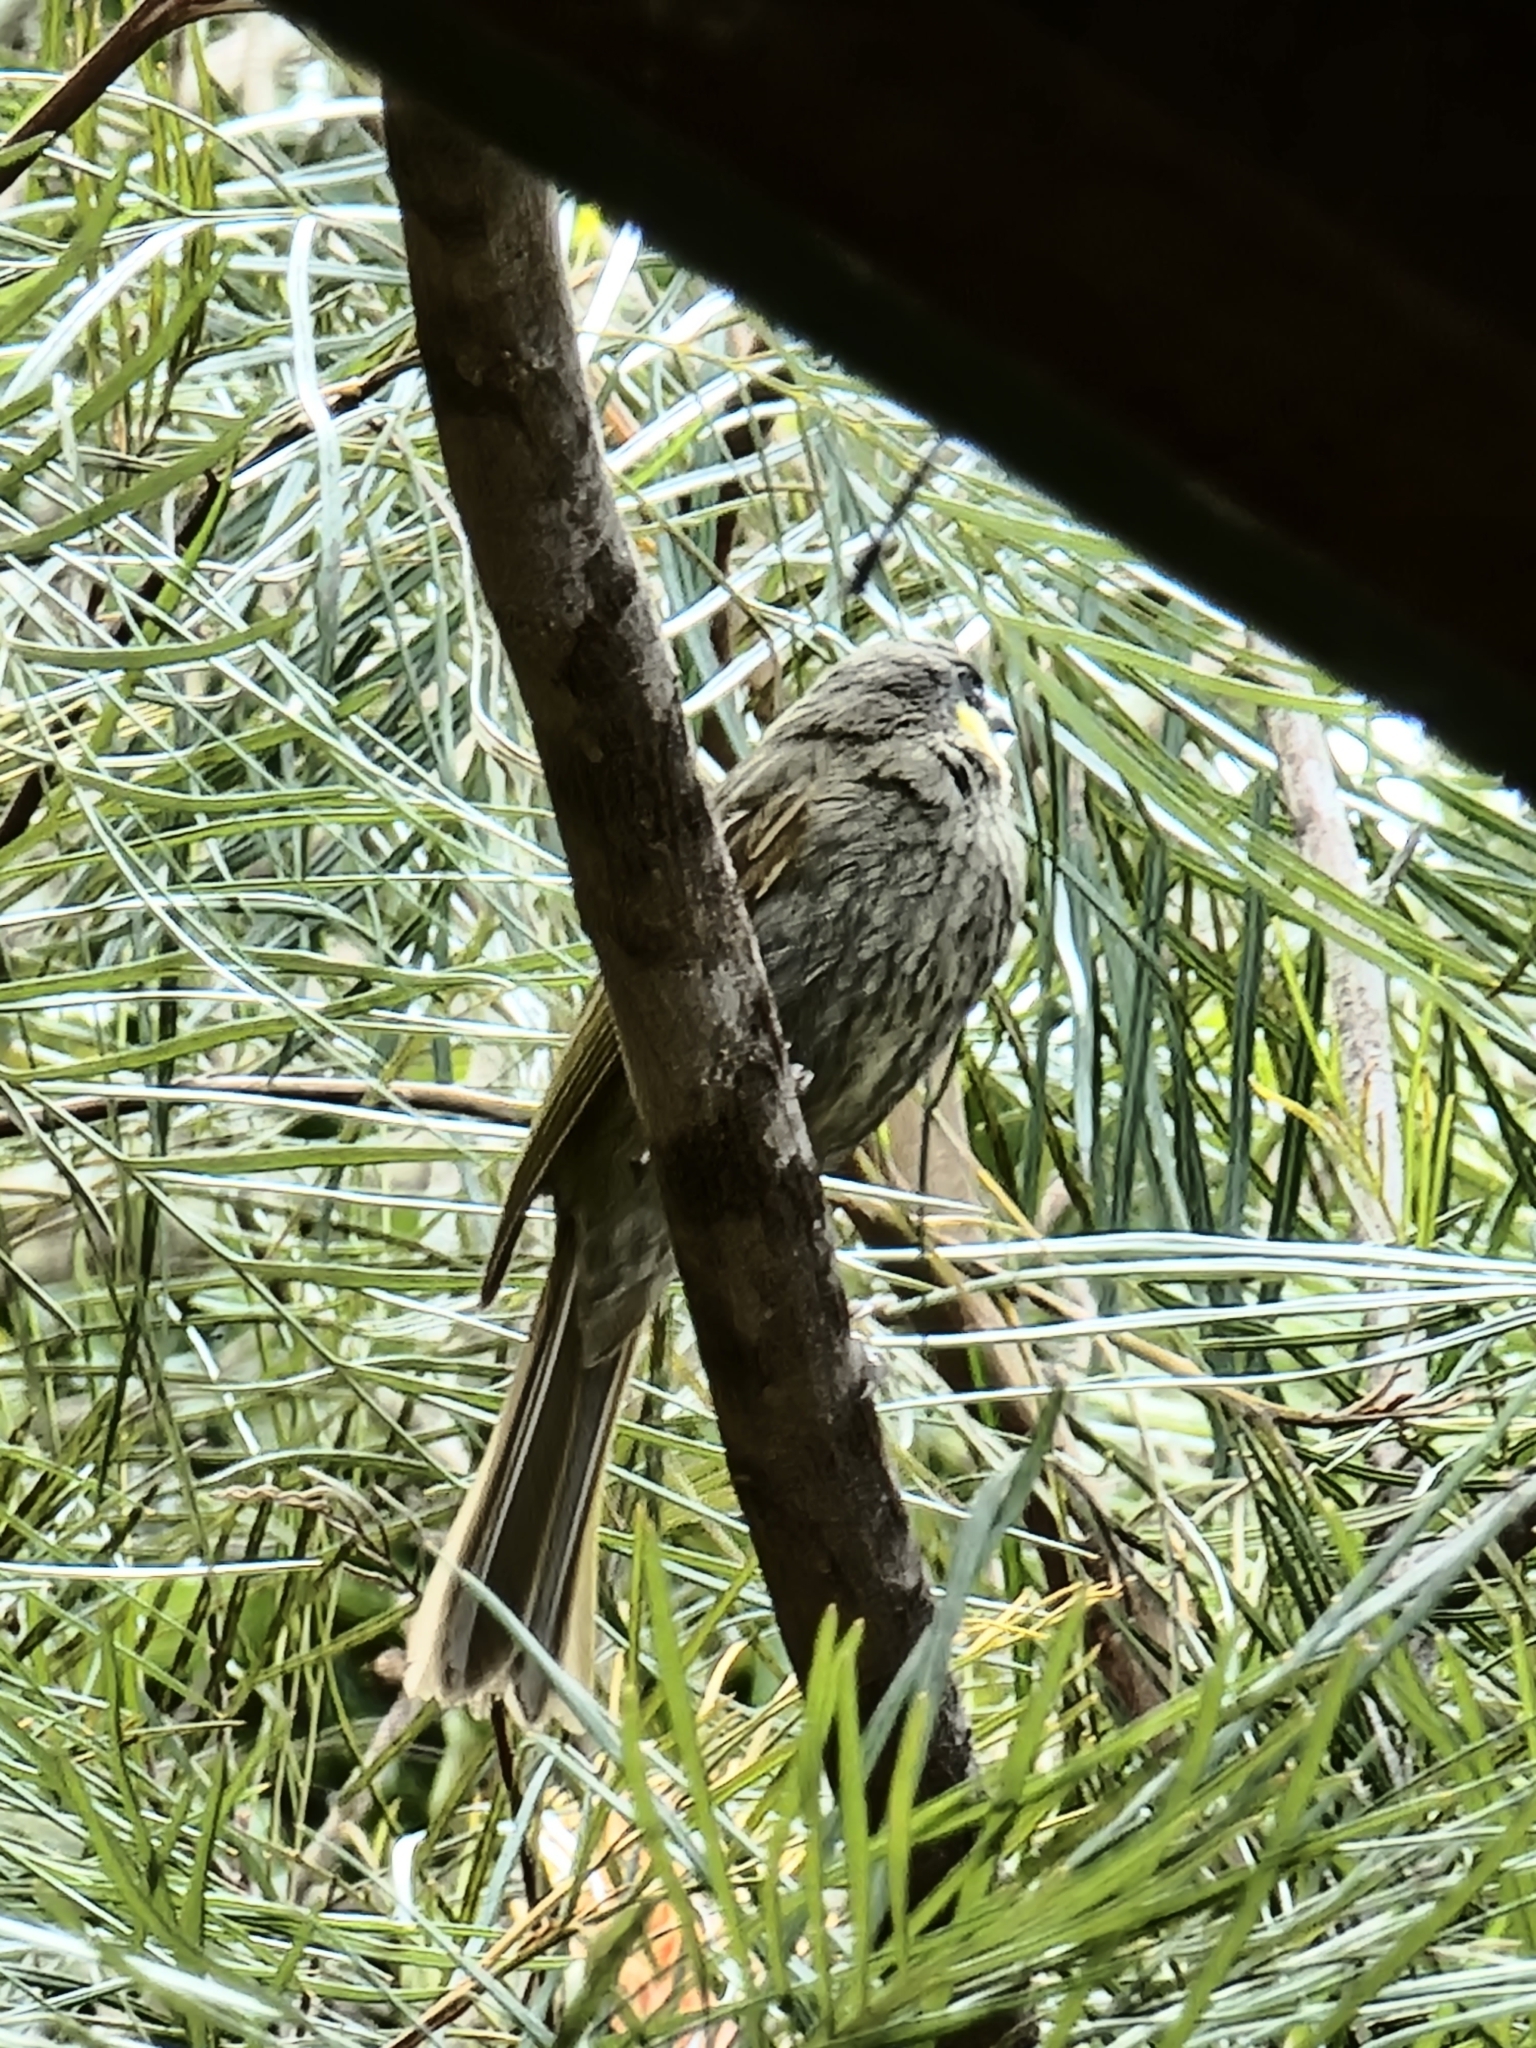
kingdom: Animalia
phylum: Chordata
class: Aves
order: Passeriformes
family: Meliphagidae
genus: Meliphaga
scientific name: Meliphaga lewinii
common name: Lewin's honeyeater
